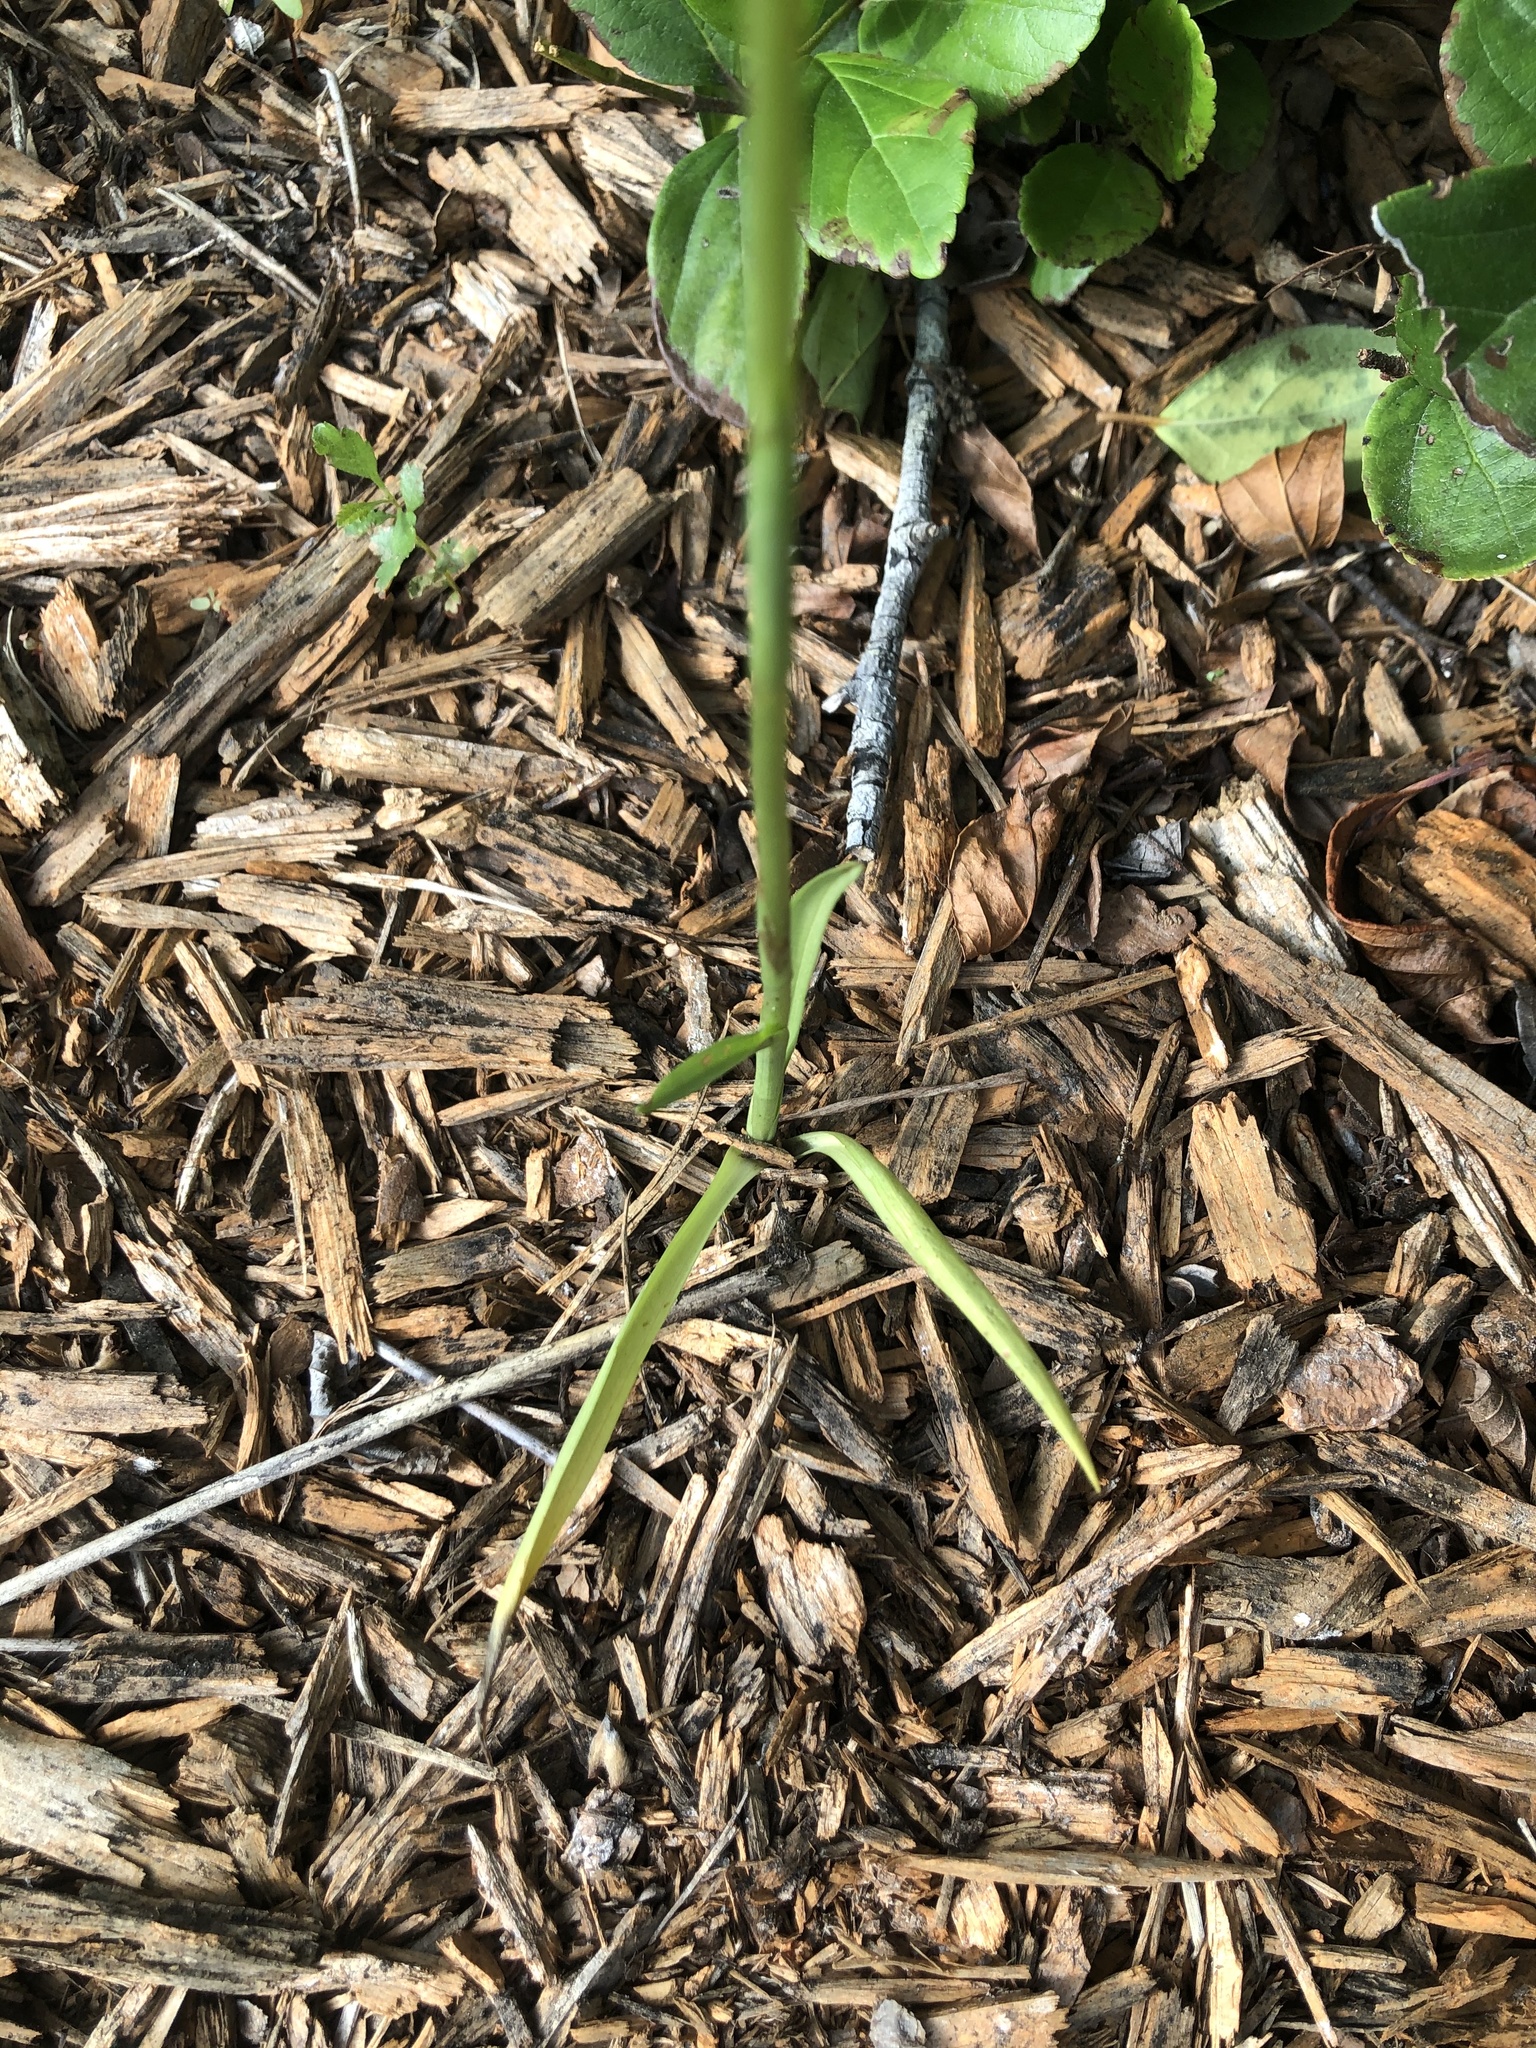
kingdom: Plantae
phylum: Tracheophyta
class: Liliopsida
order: Asparagales
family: Orchidaceae
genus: Spiranthes
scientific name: Spiranthes vernalis
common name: Spring ladies'-tresses
